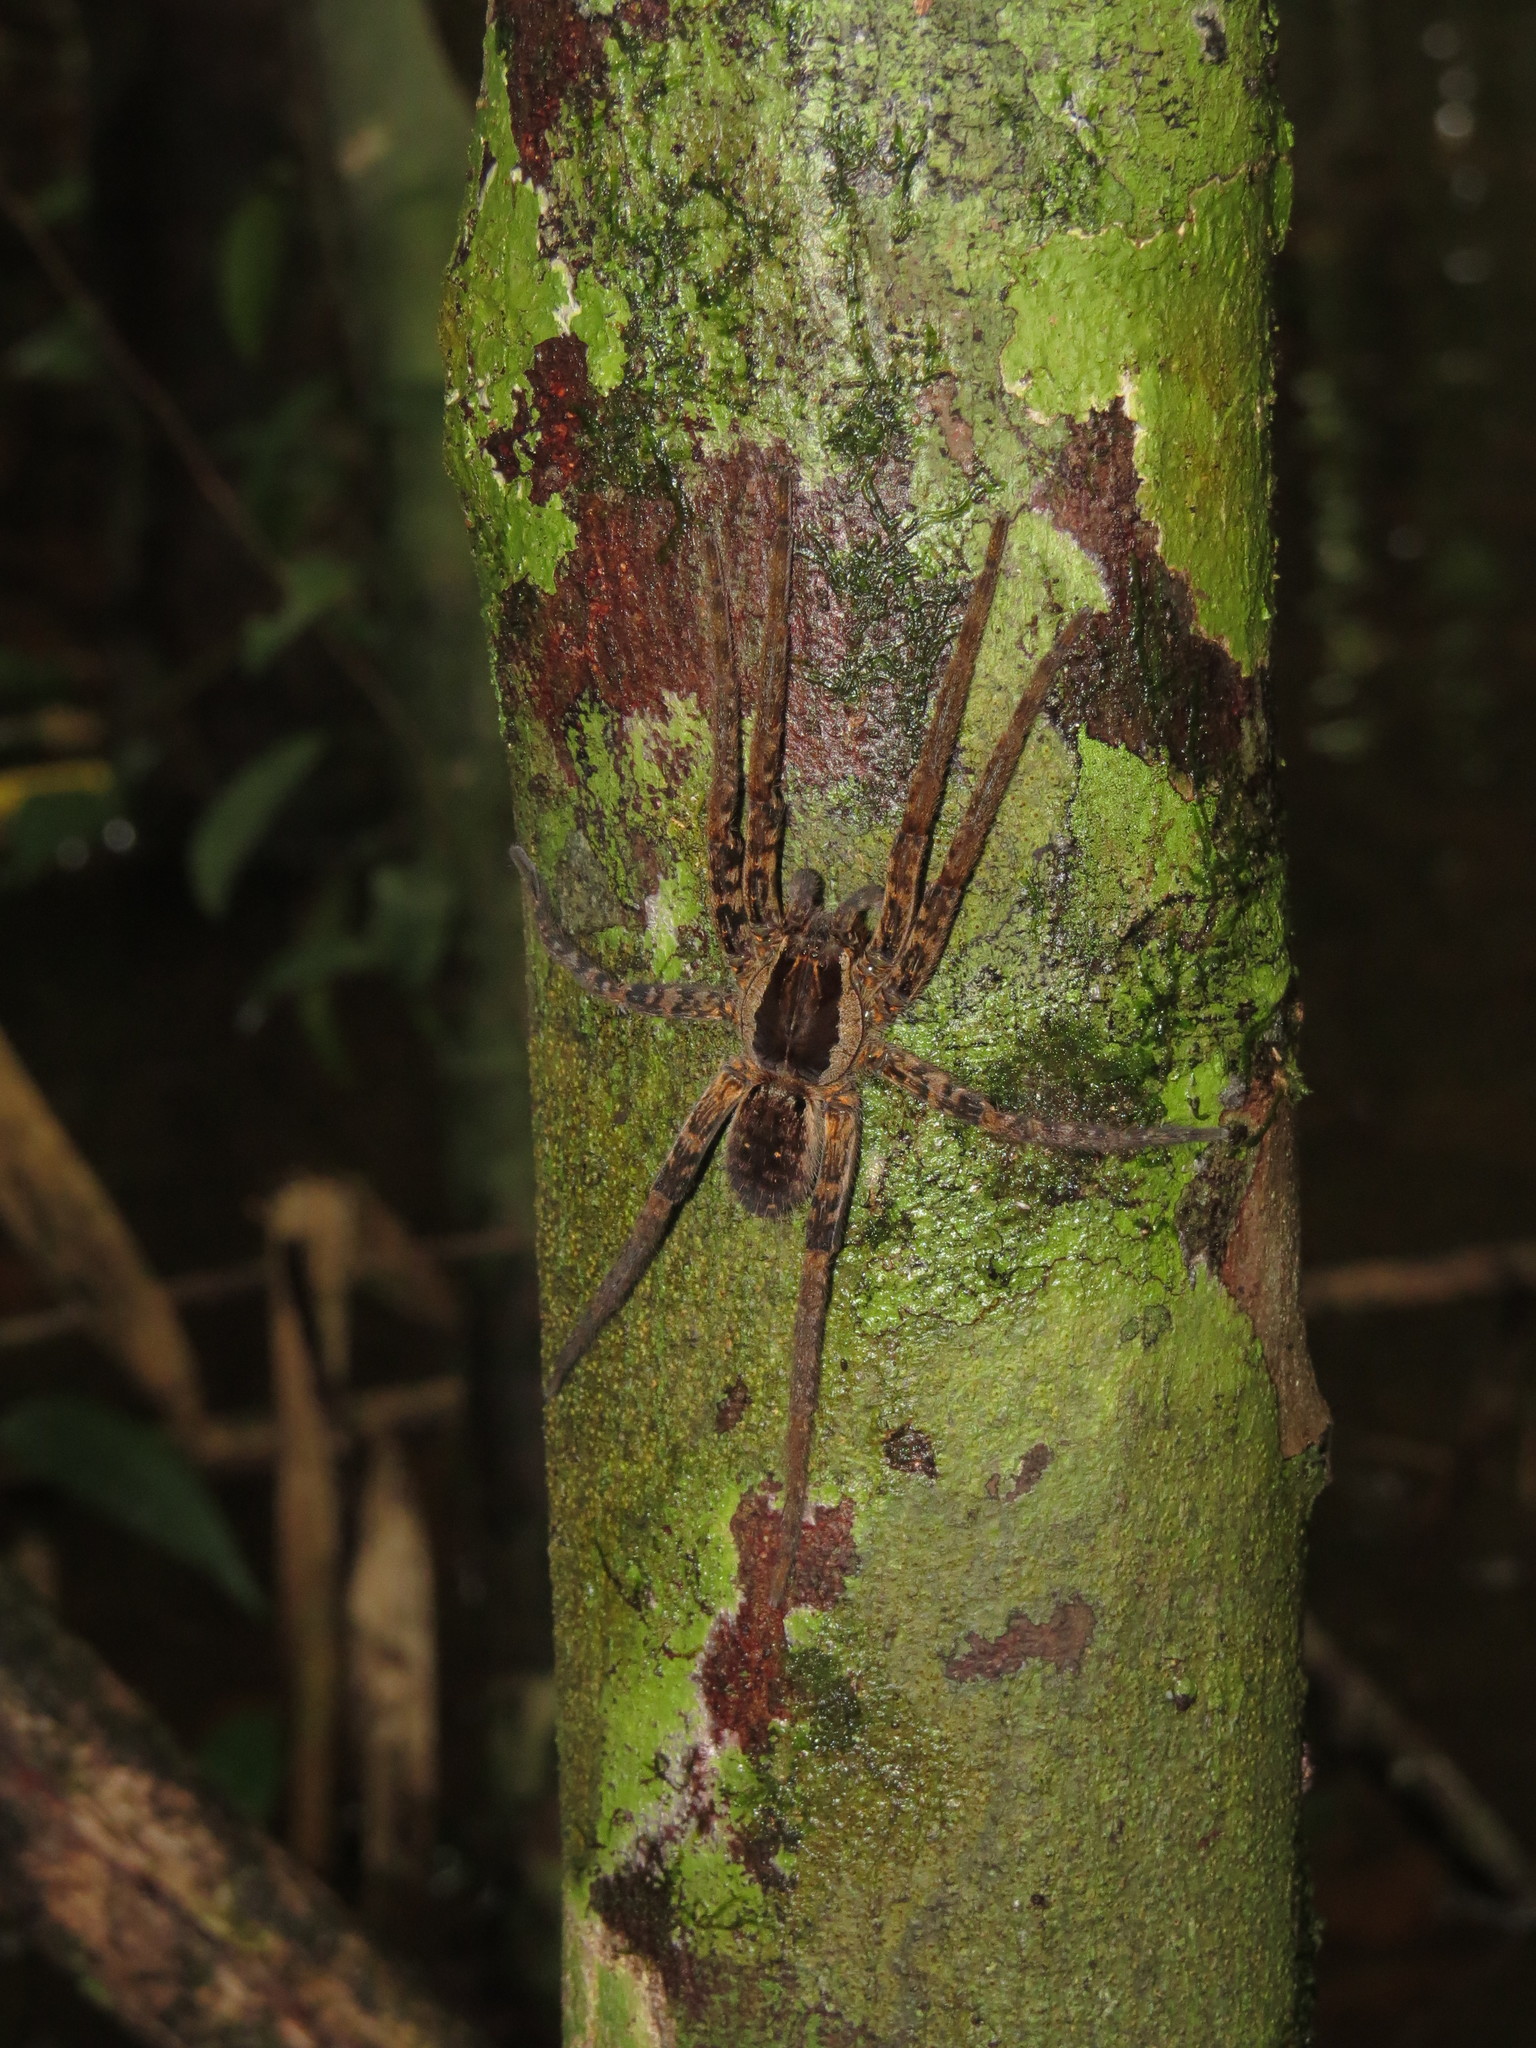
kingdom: Animalia
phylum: Arthropoda
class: Arachnida
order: Araneae
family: Ctenidae
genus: Ancylometes
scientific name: Ancylometes
